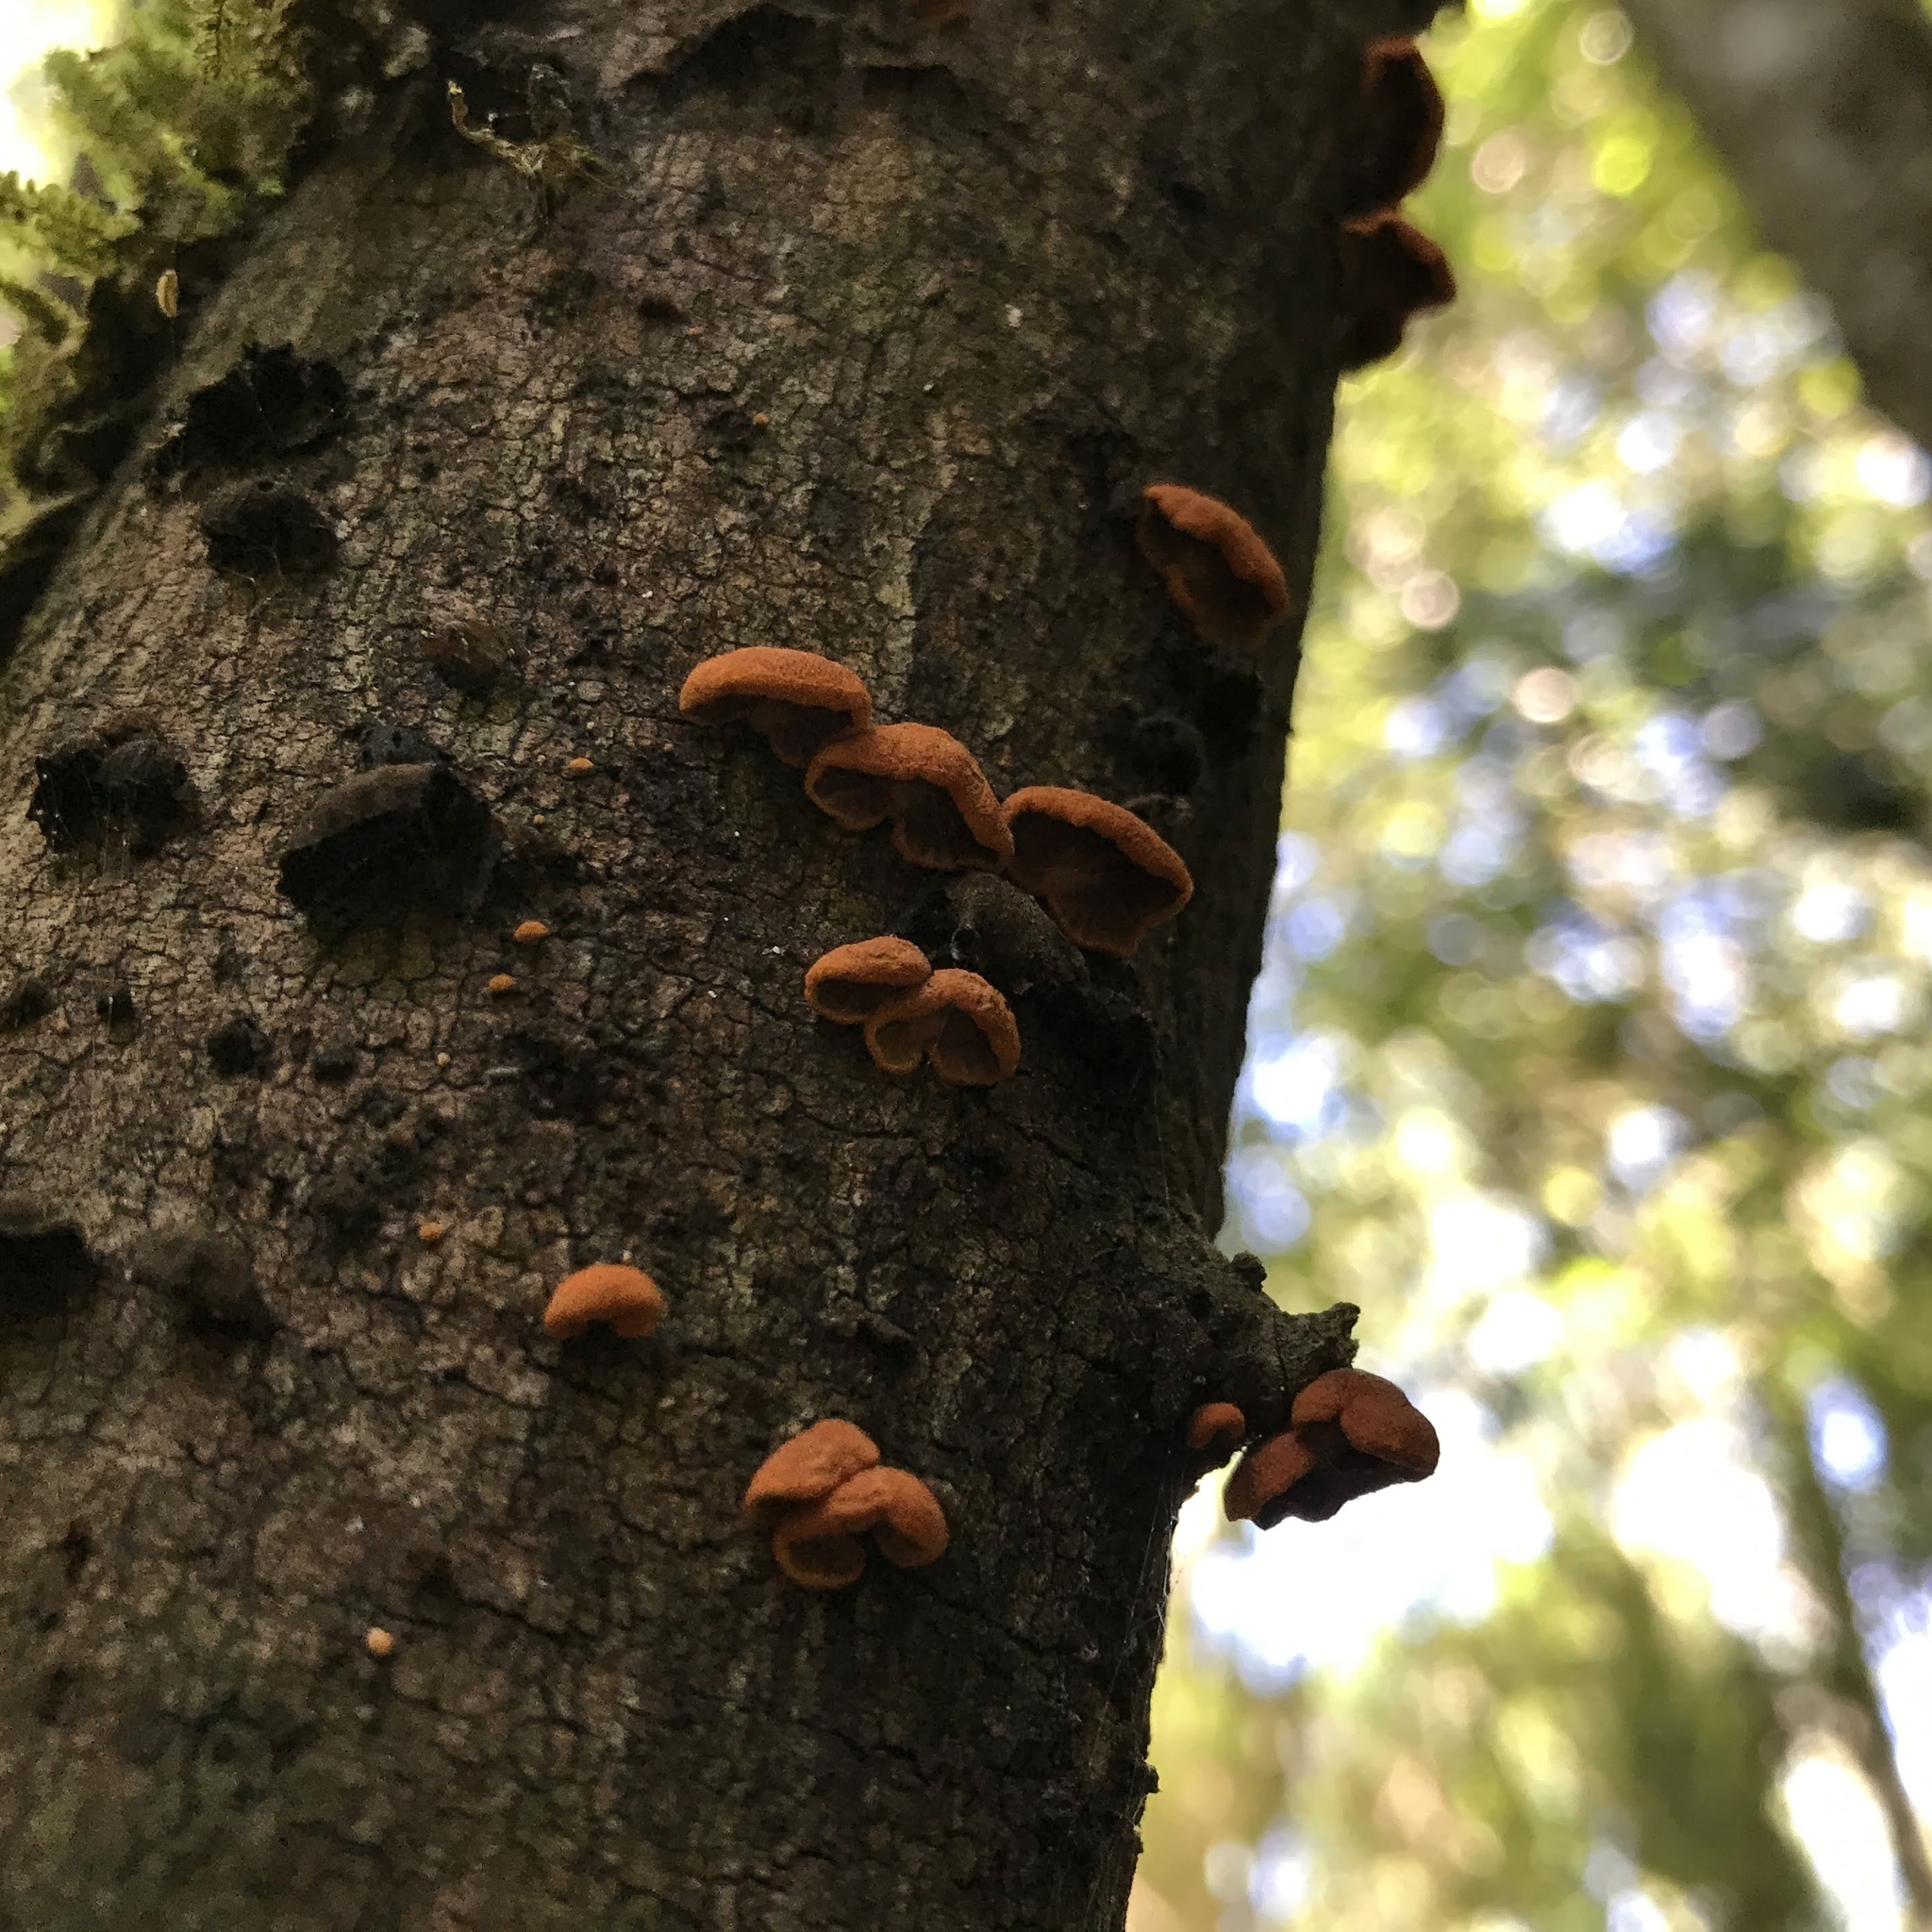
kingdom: Fungi
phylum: Basidiomycota
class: Agaricomycetes
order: Agaricales
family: Omphalotaceae
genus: Anthracophyllum
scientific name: Anthracophyllum discolor
